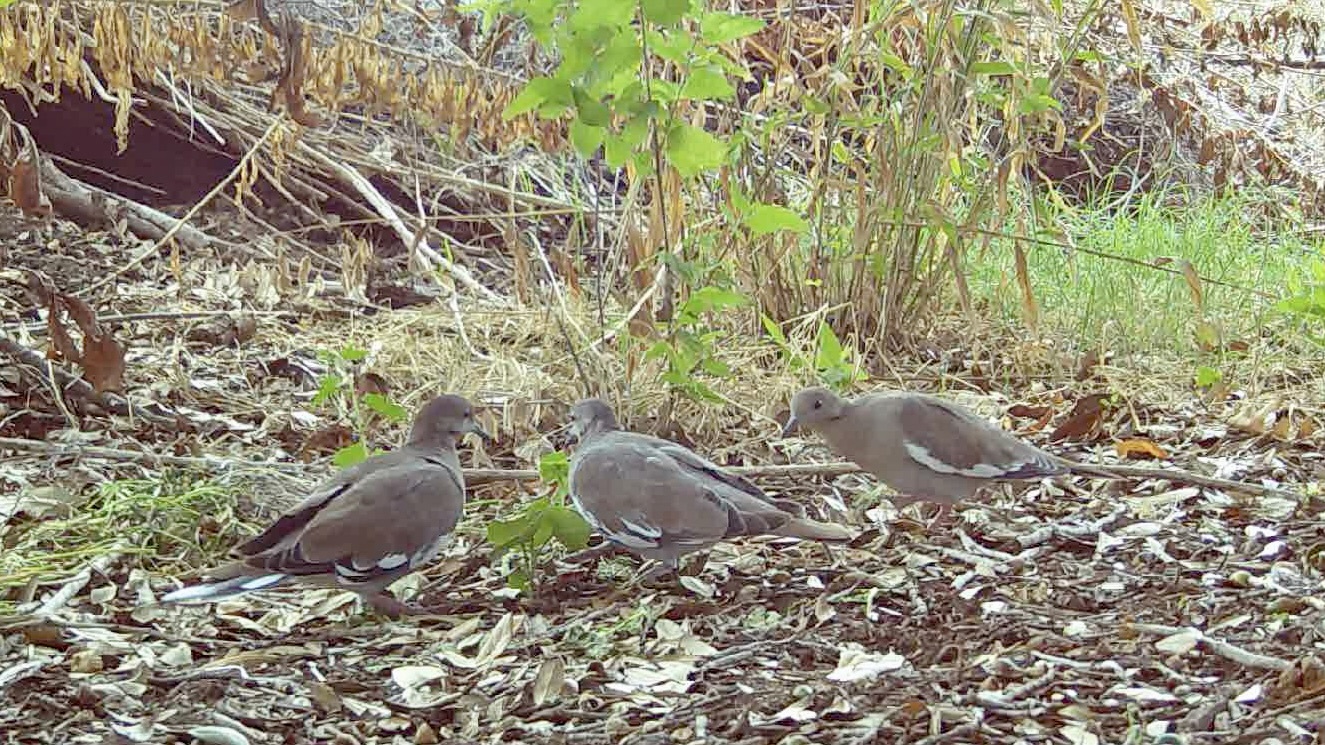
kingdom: Animalia
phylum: Chordata
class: Aves
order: Columbiformes
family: Columbidae
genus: Zenaida
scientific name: Zenaida asiatica
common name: White-winged dove
